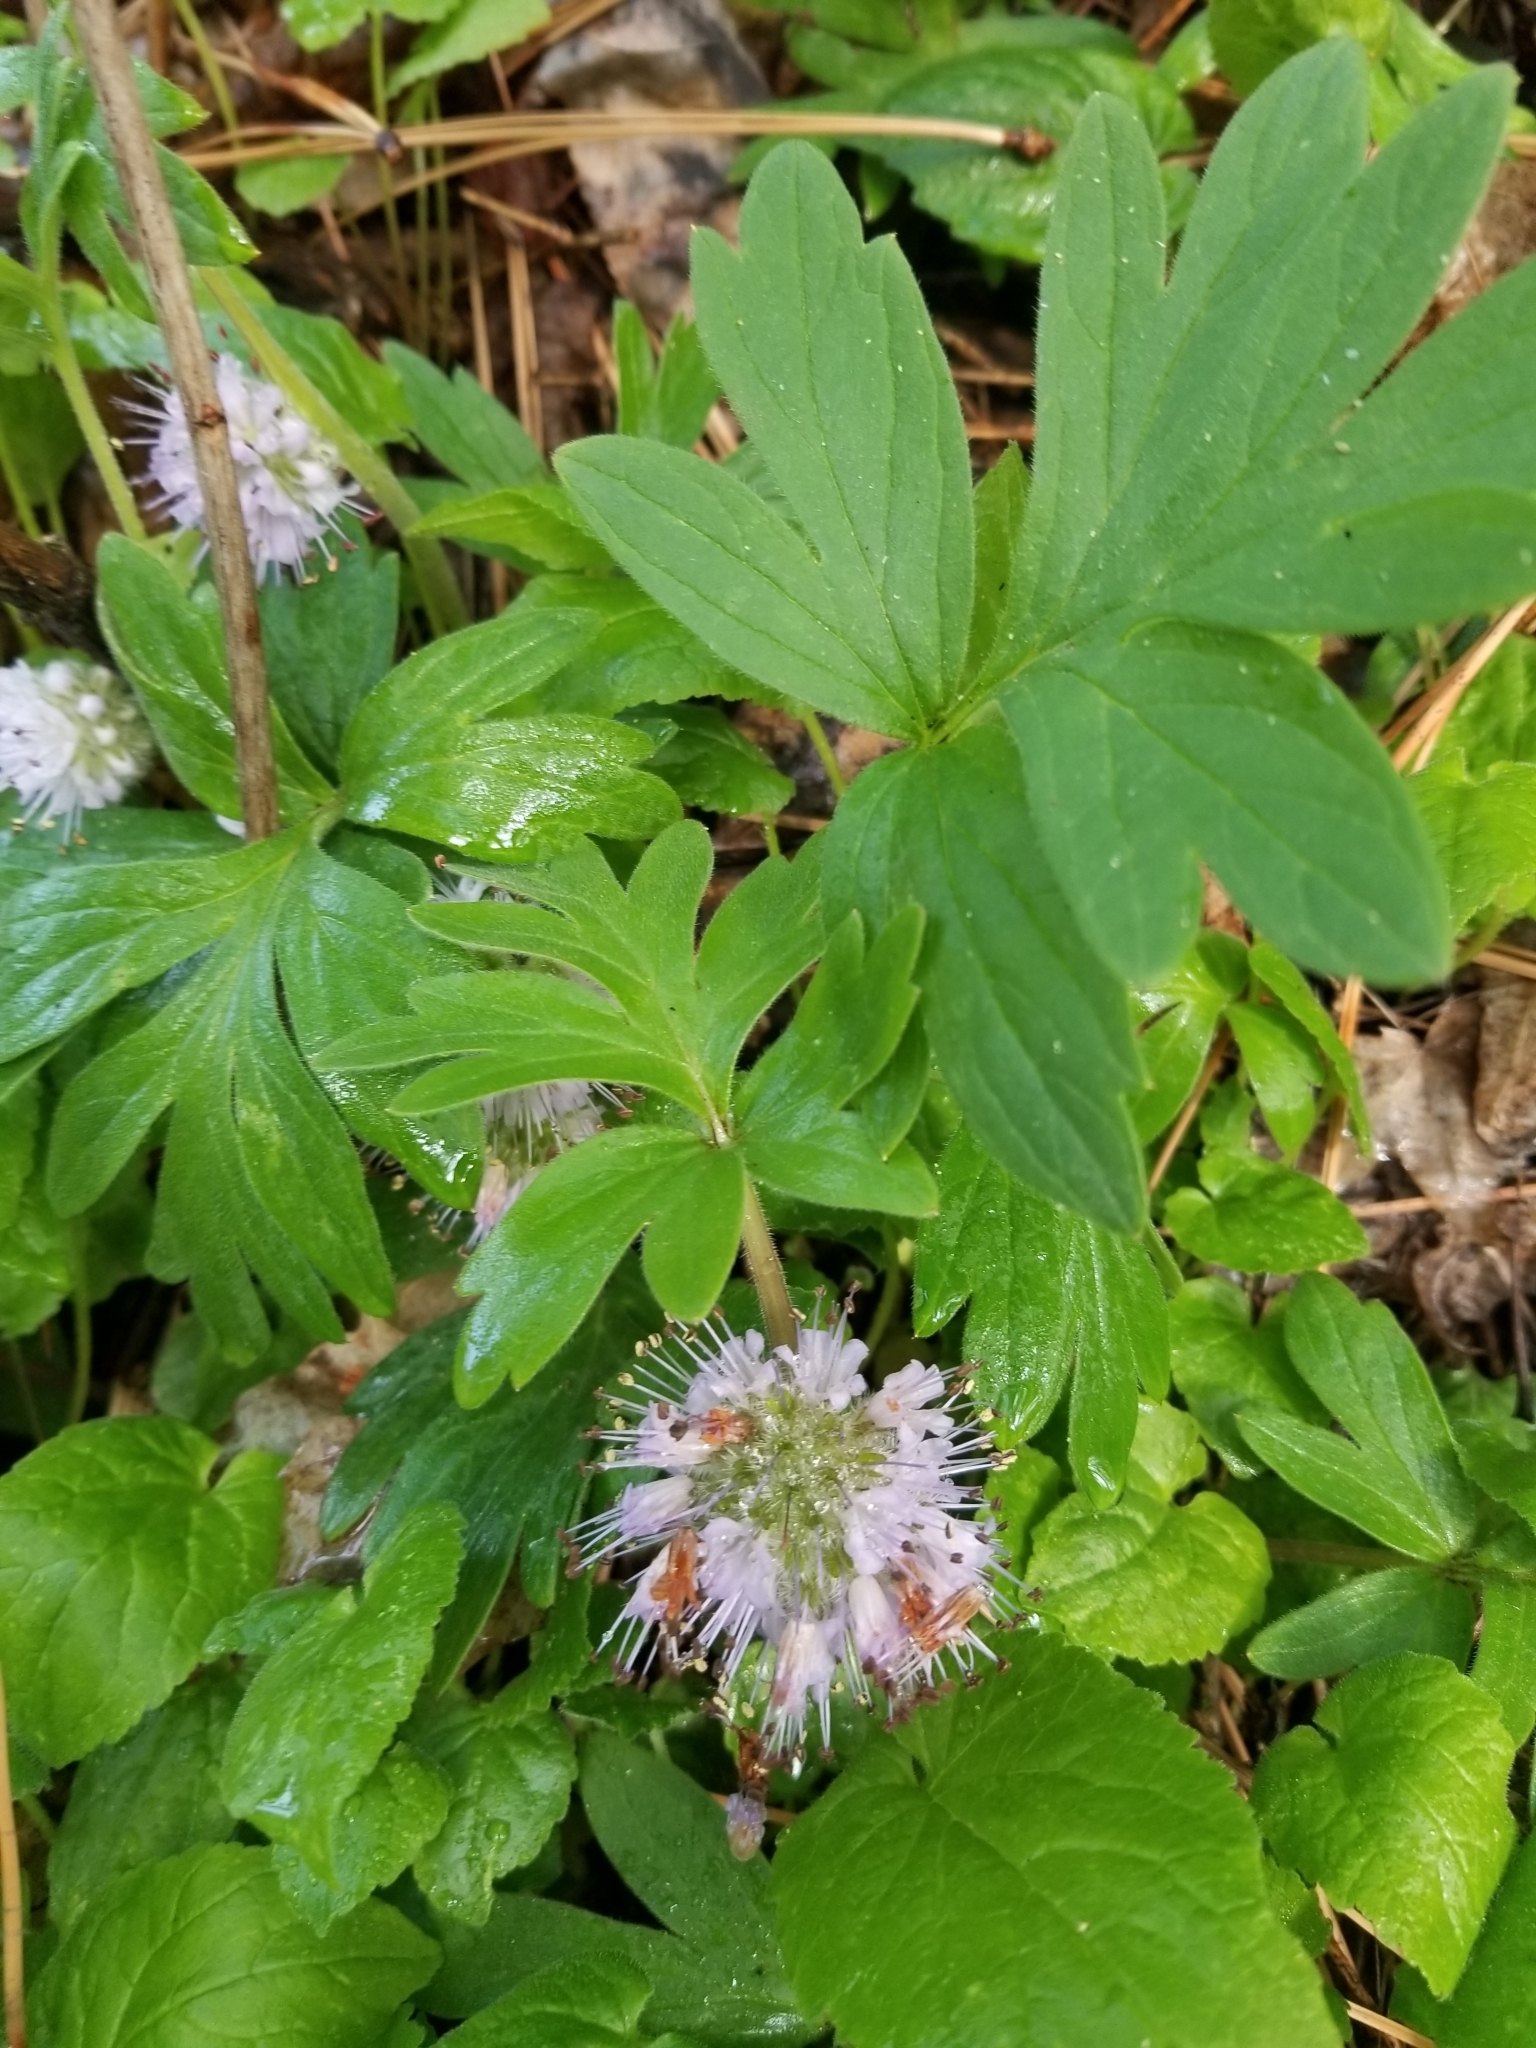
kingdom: Plantae
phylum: Tracheophyta
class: Magnoliopsida
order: Boraginales
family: Hydrophyllaceae
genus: Hydrophyllum
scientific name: Hydrophyllum capitatum
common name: Woollen-breeches
